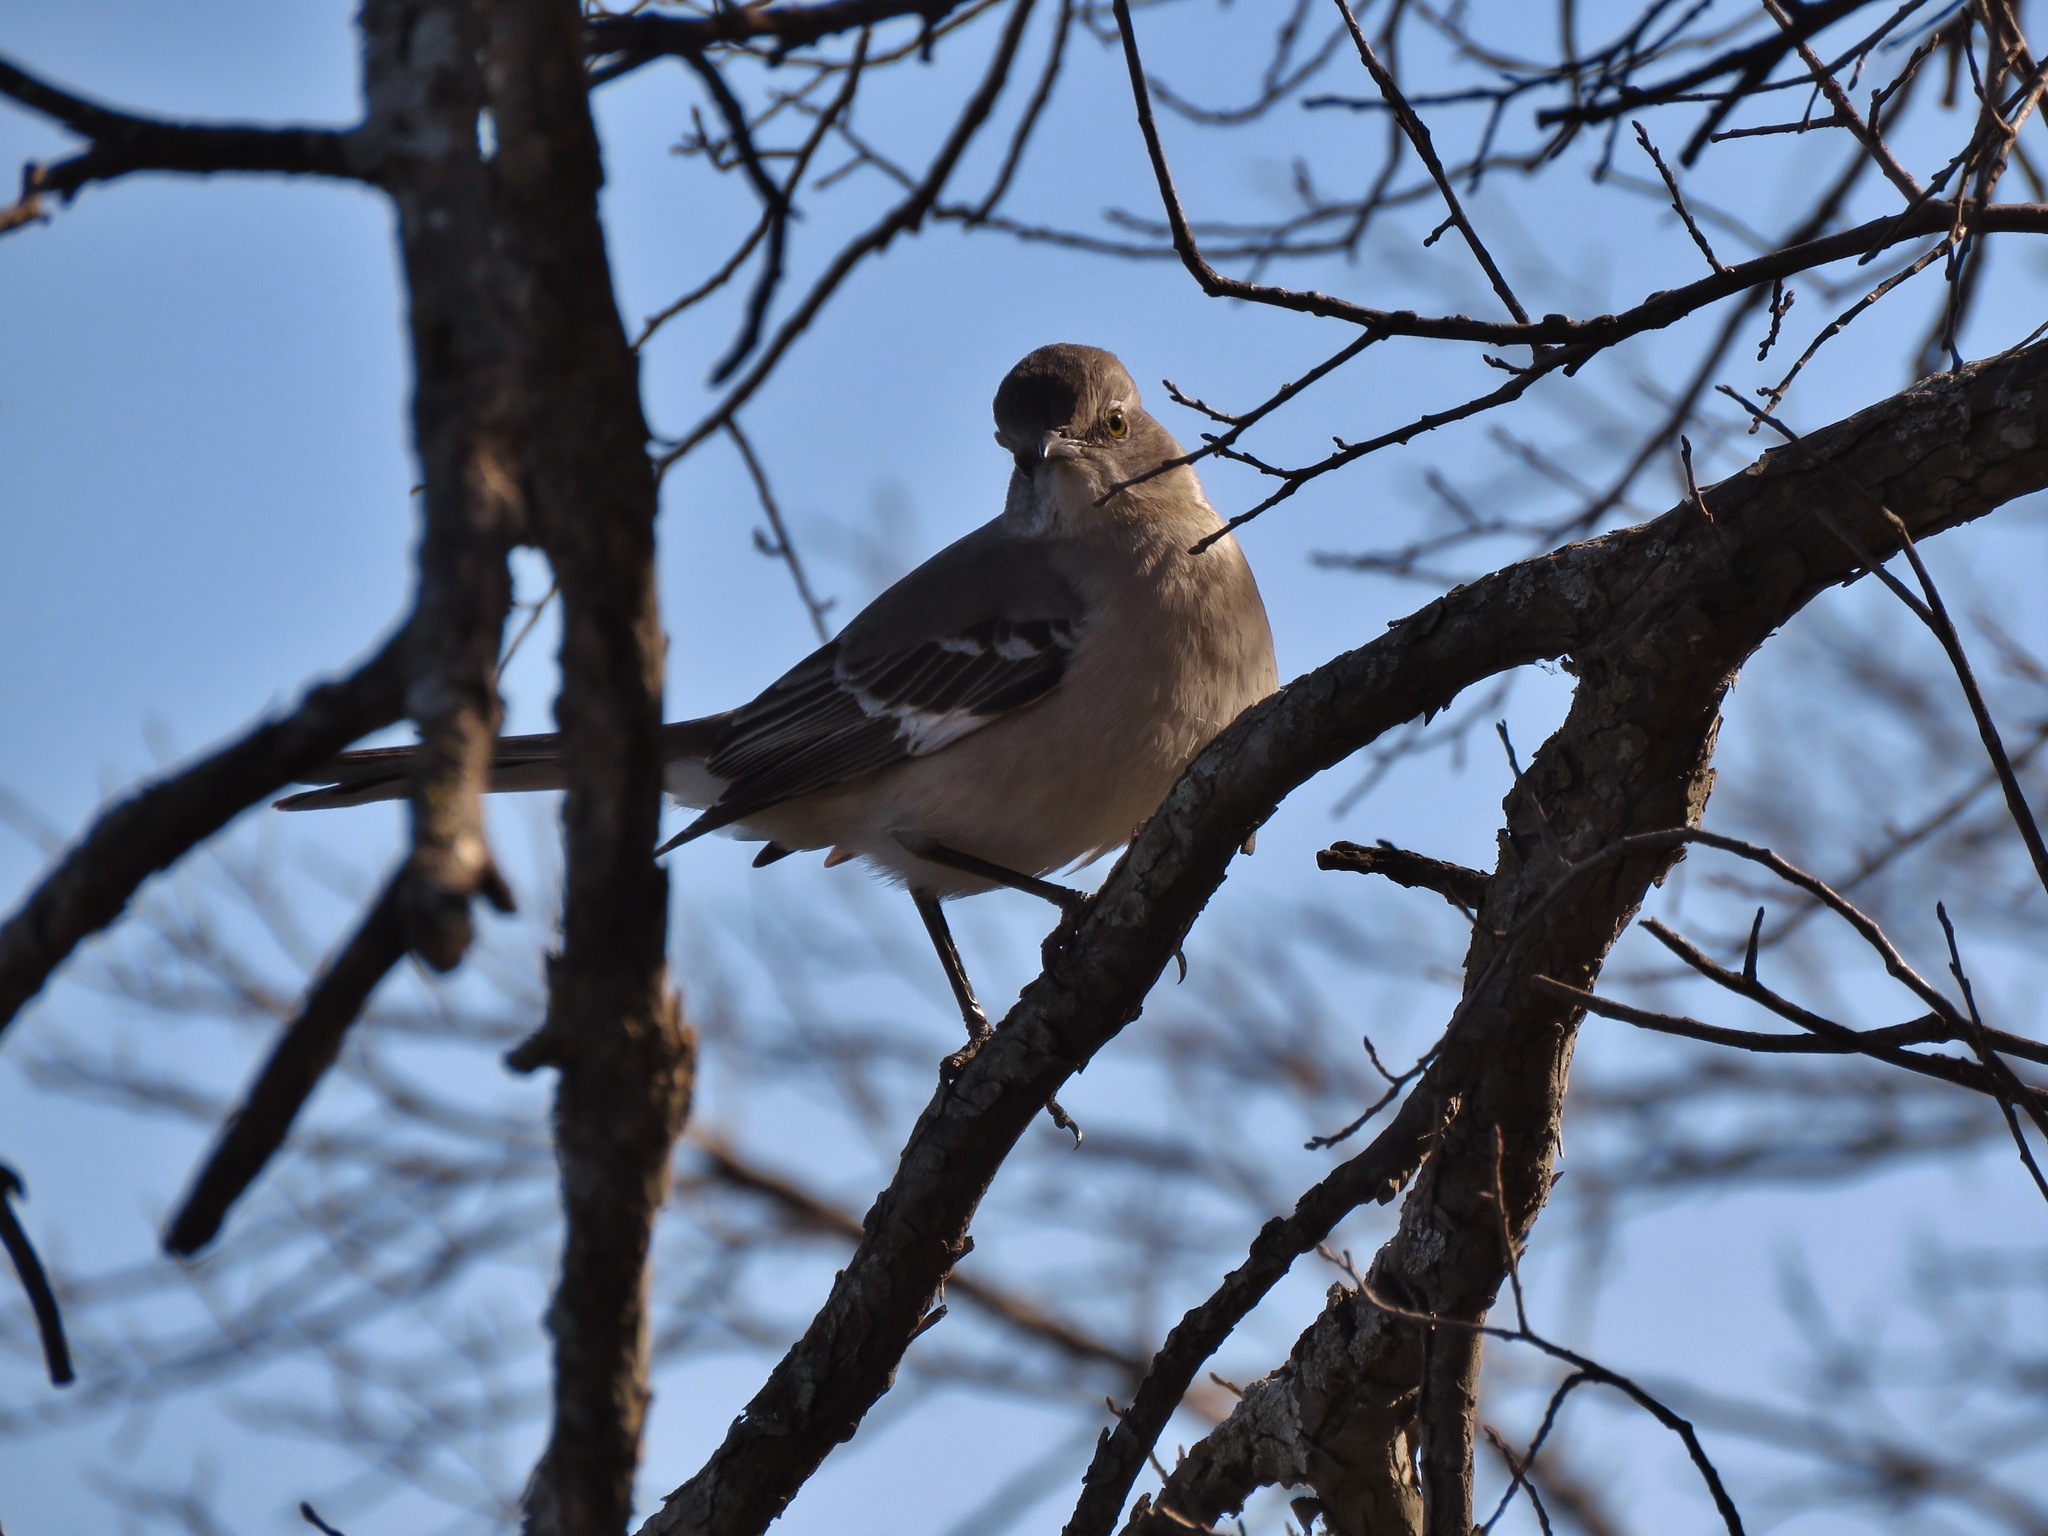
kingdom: Animalia
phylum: Chordata
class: Aves
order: Passeriformes
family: Mimidae
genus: Mimus
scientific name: Mimus polyglottos
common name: Northern mockingbird
